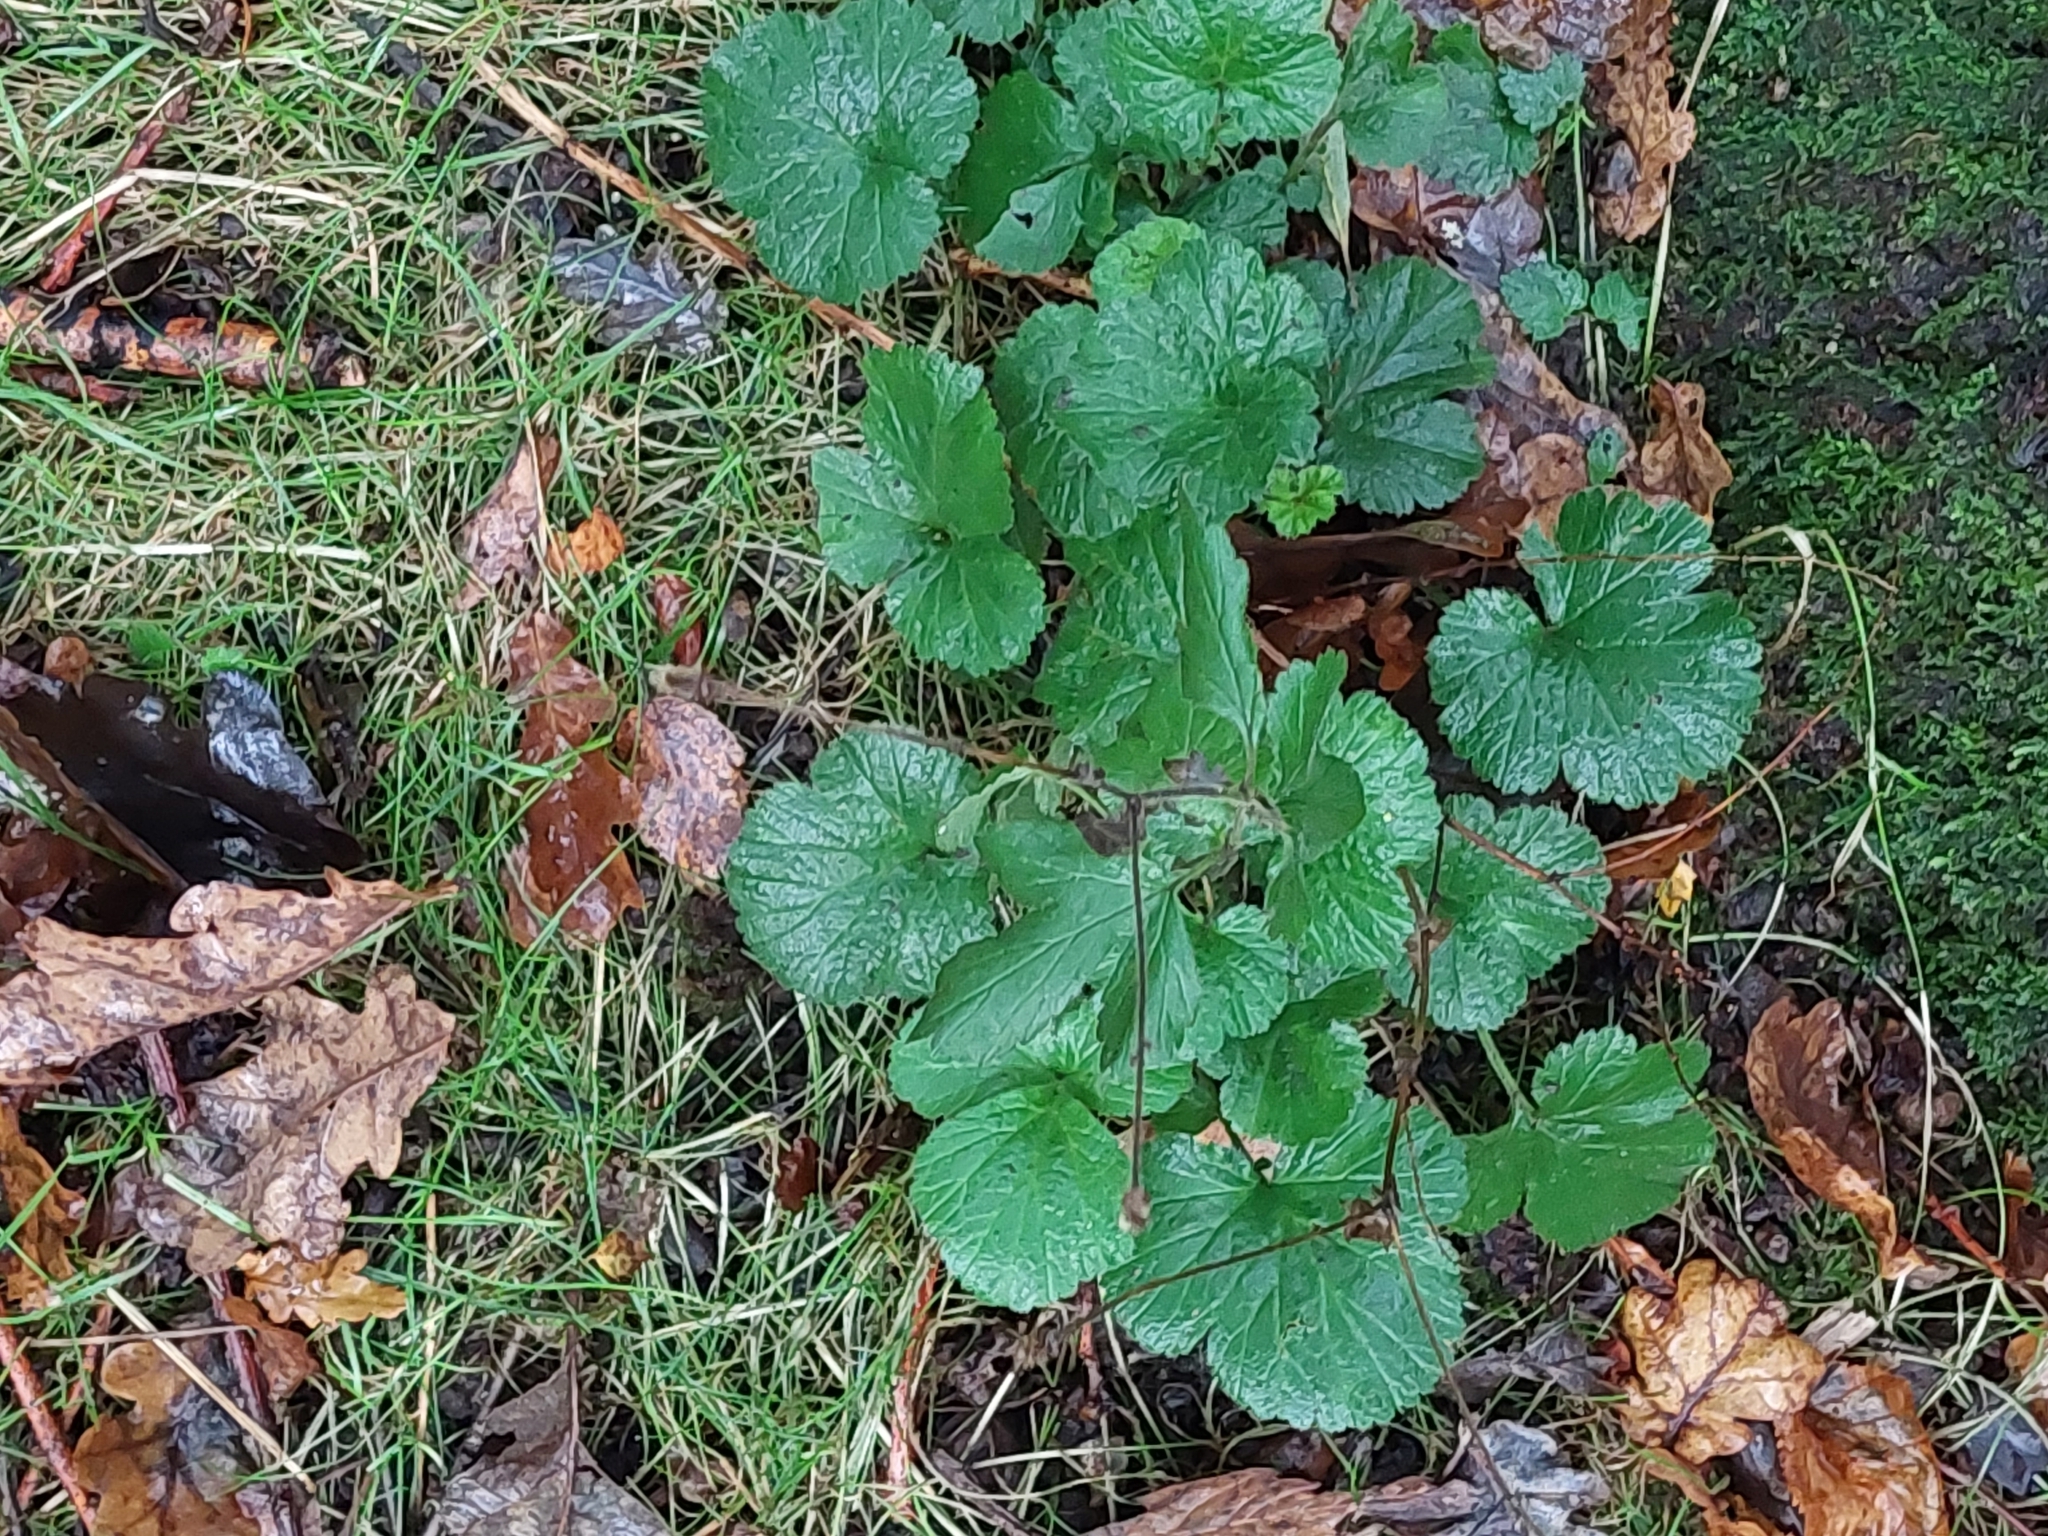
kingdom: Plantae
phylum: Tracheophyta
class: Magnoliopsida
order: Rosales
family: Rosaceae
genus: Geum
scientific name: Geum urbanum
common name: Wood avens
